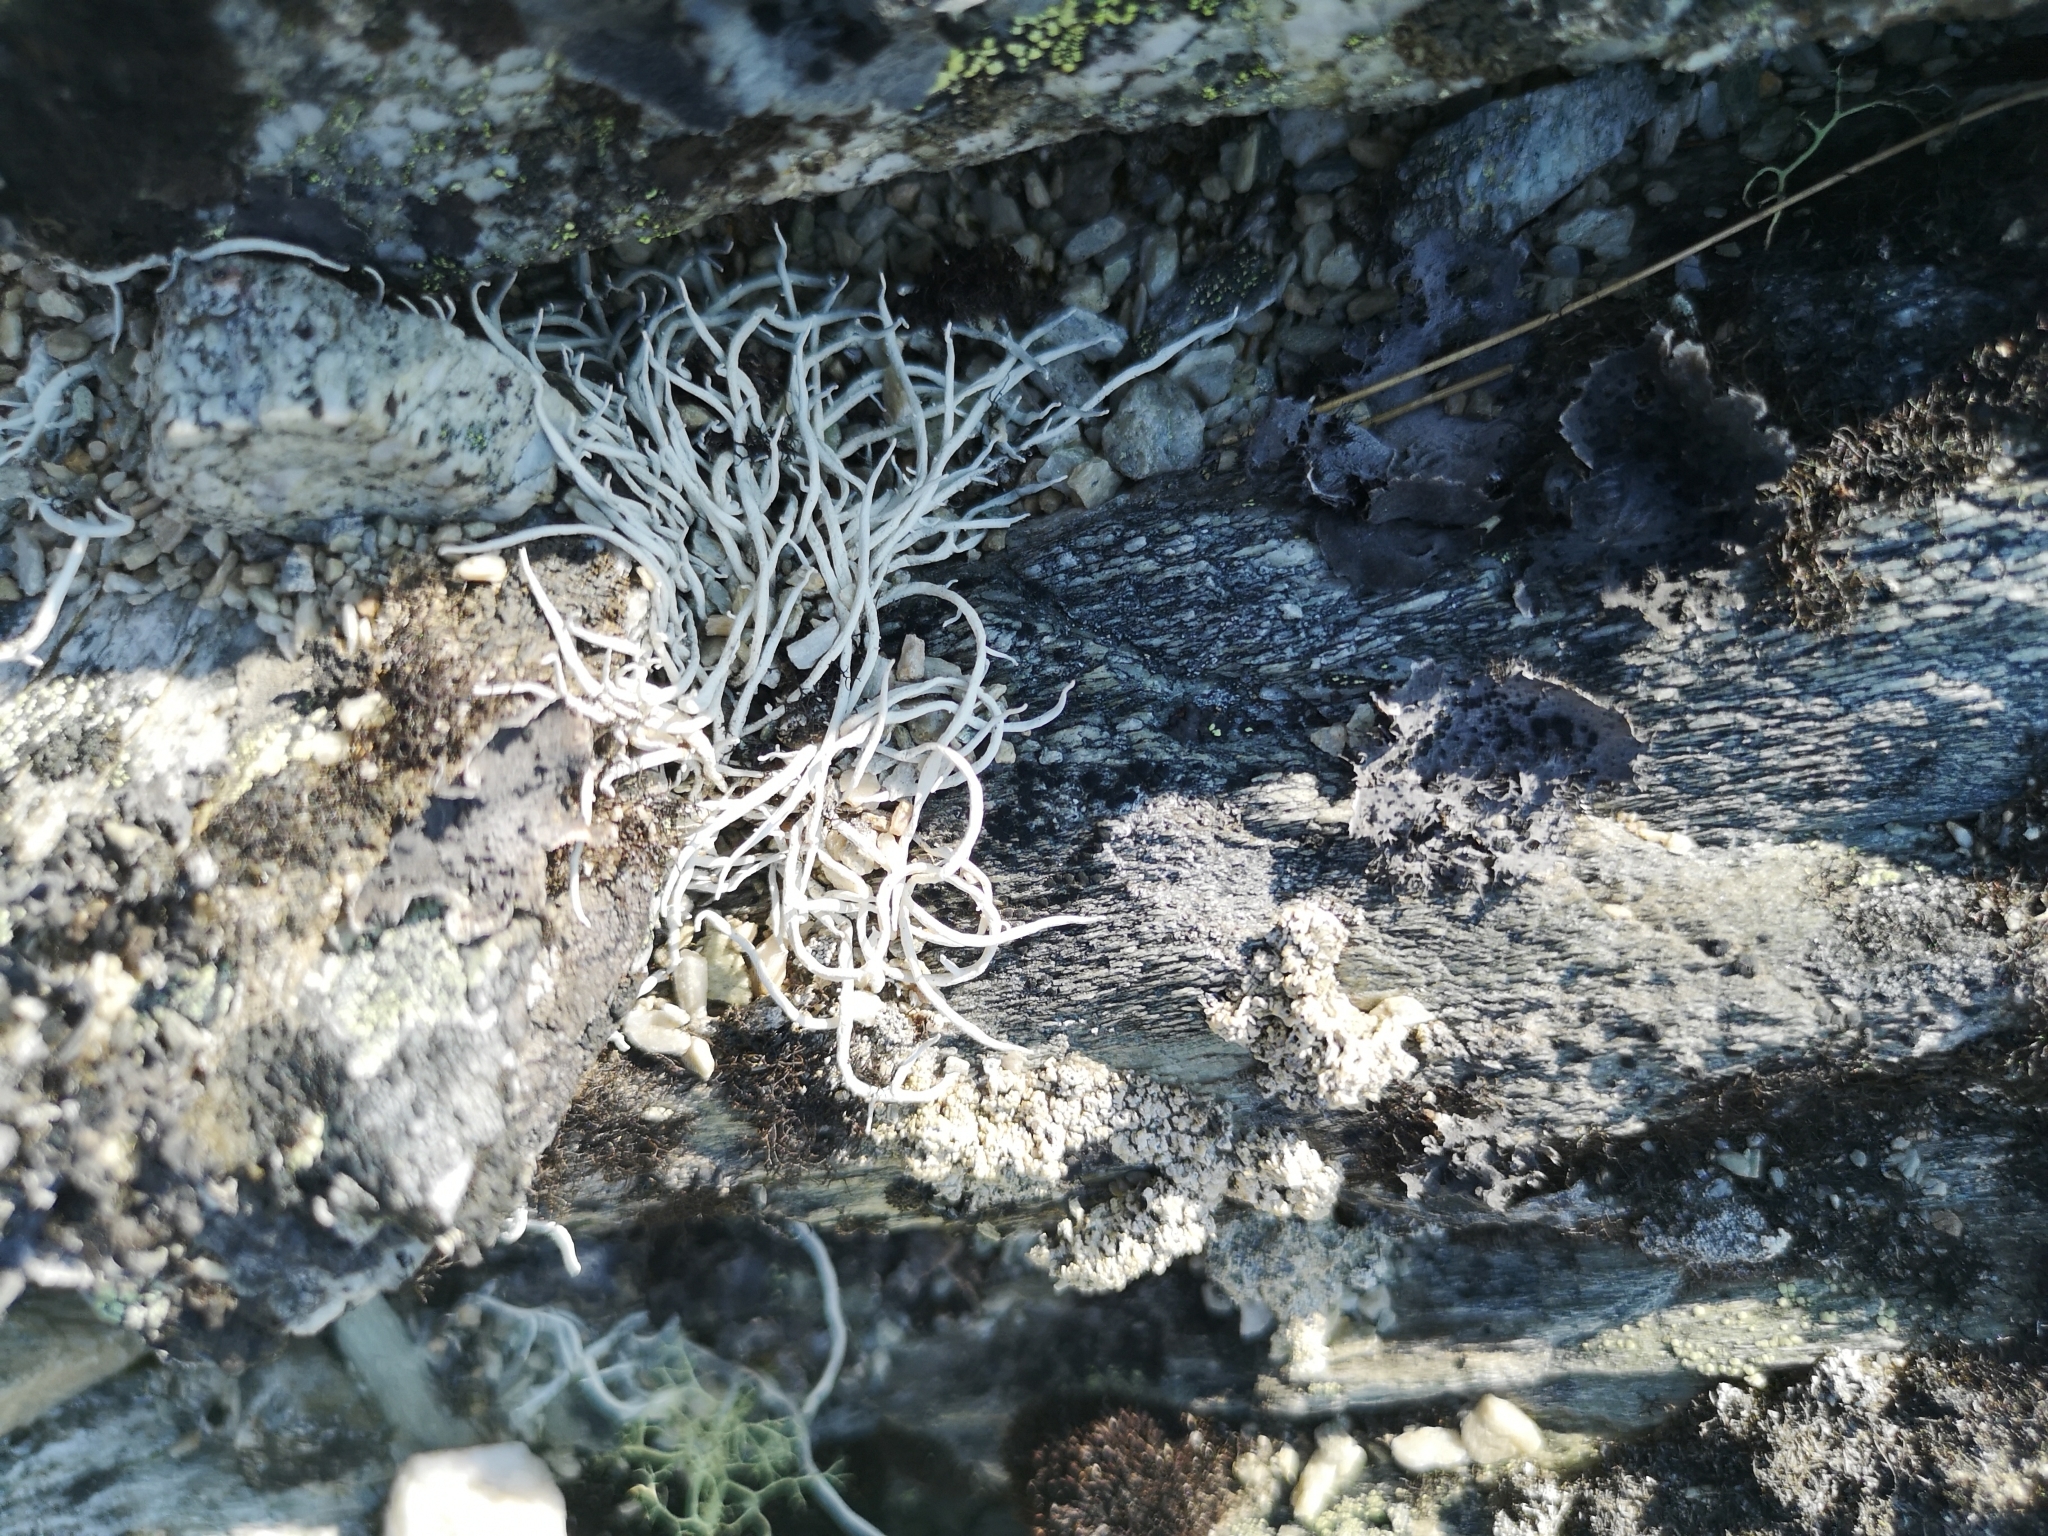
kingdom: Fungi
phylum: Ascomycota
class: Lecanoromycetes
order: Pertusariales
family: Icmadophilaceae
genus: Thamnolia
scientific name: Thamnolia vermicularis
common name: Whiteworm lichen
